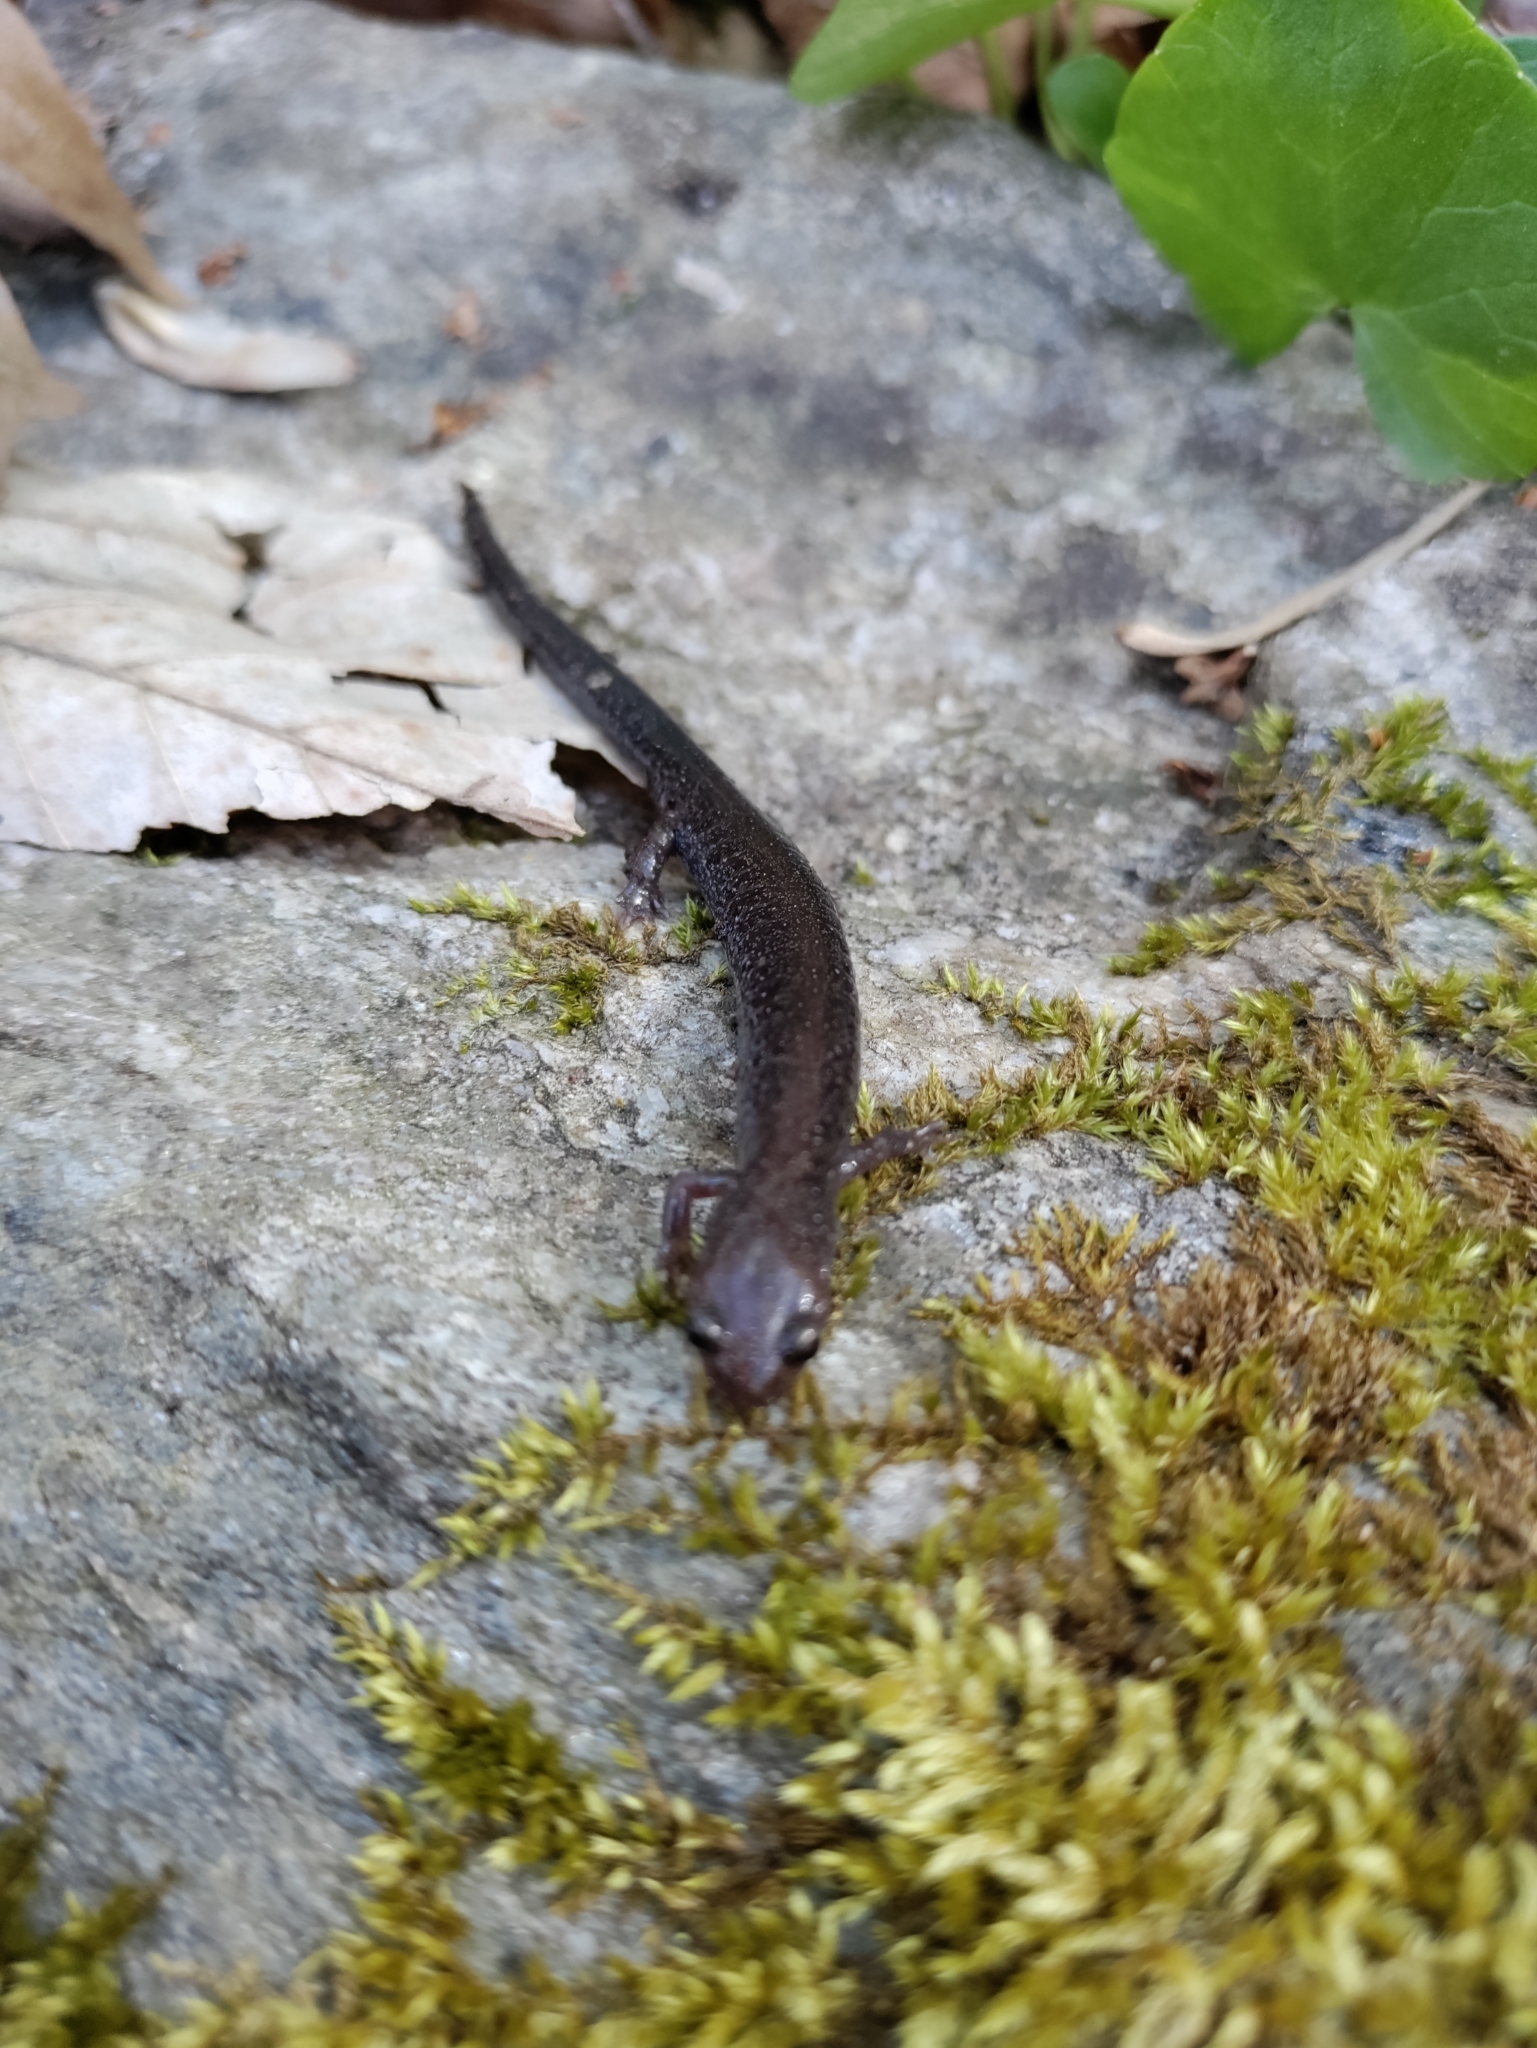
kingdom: Animalia
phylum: Chordata
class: Amphibia
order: Caudata
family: Plethodontidae
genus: Plethodon
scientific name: Plethodon cinereus
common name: Redback salamander
